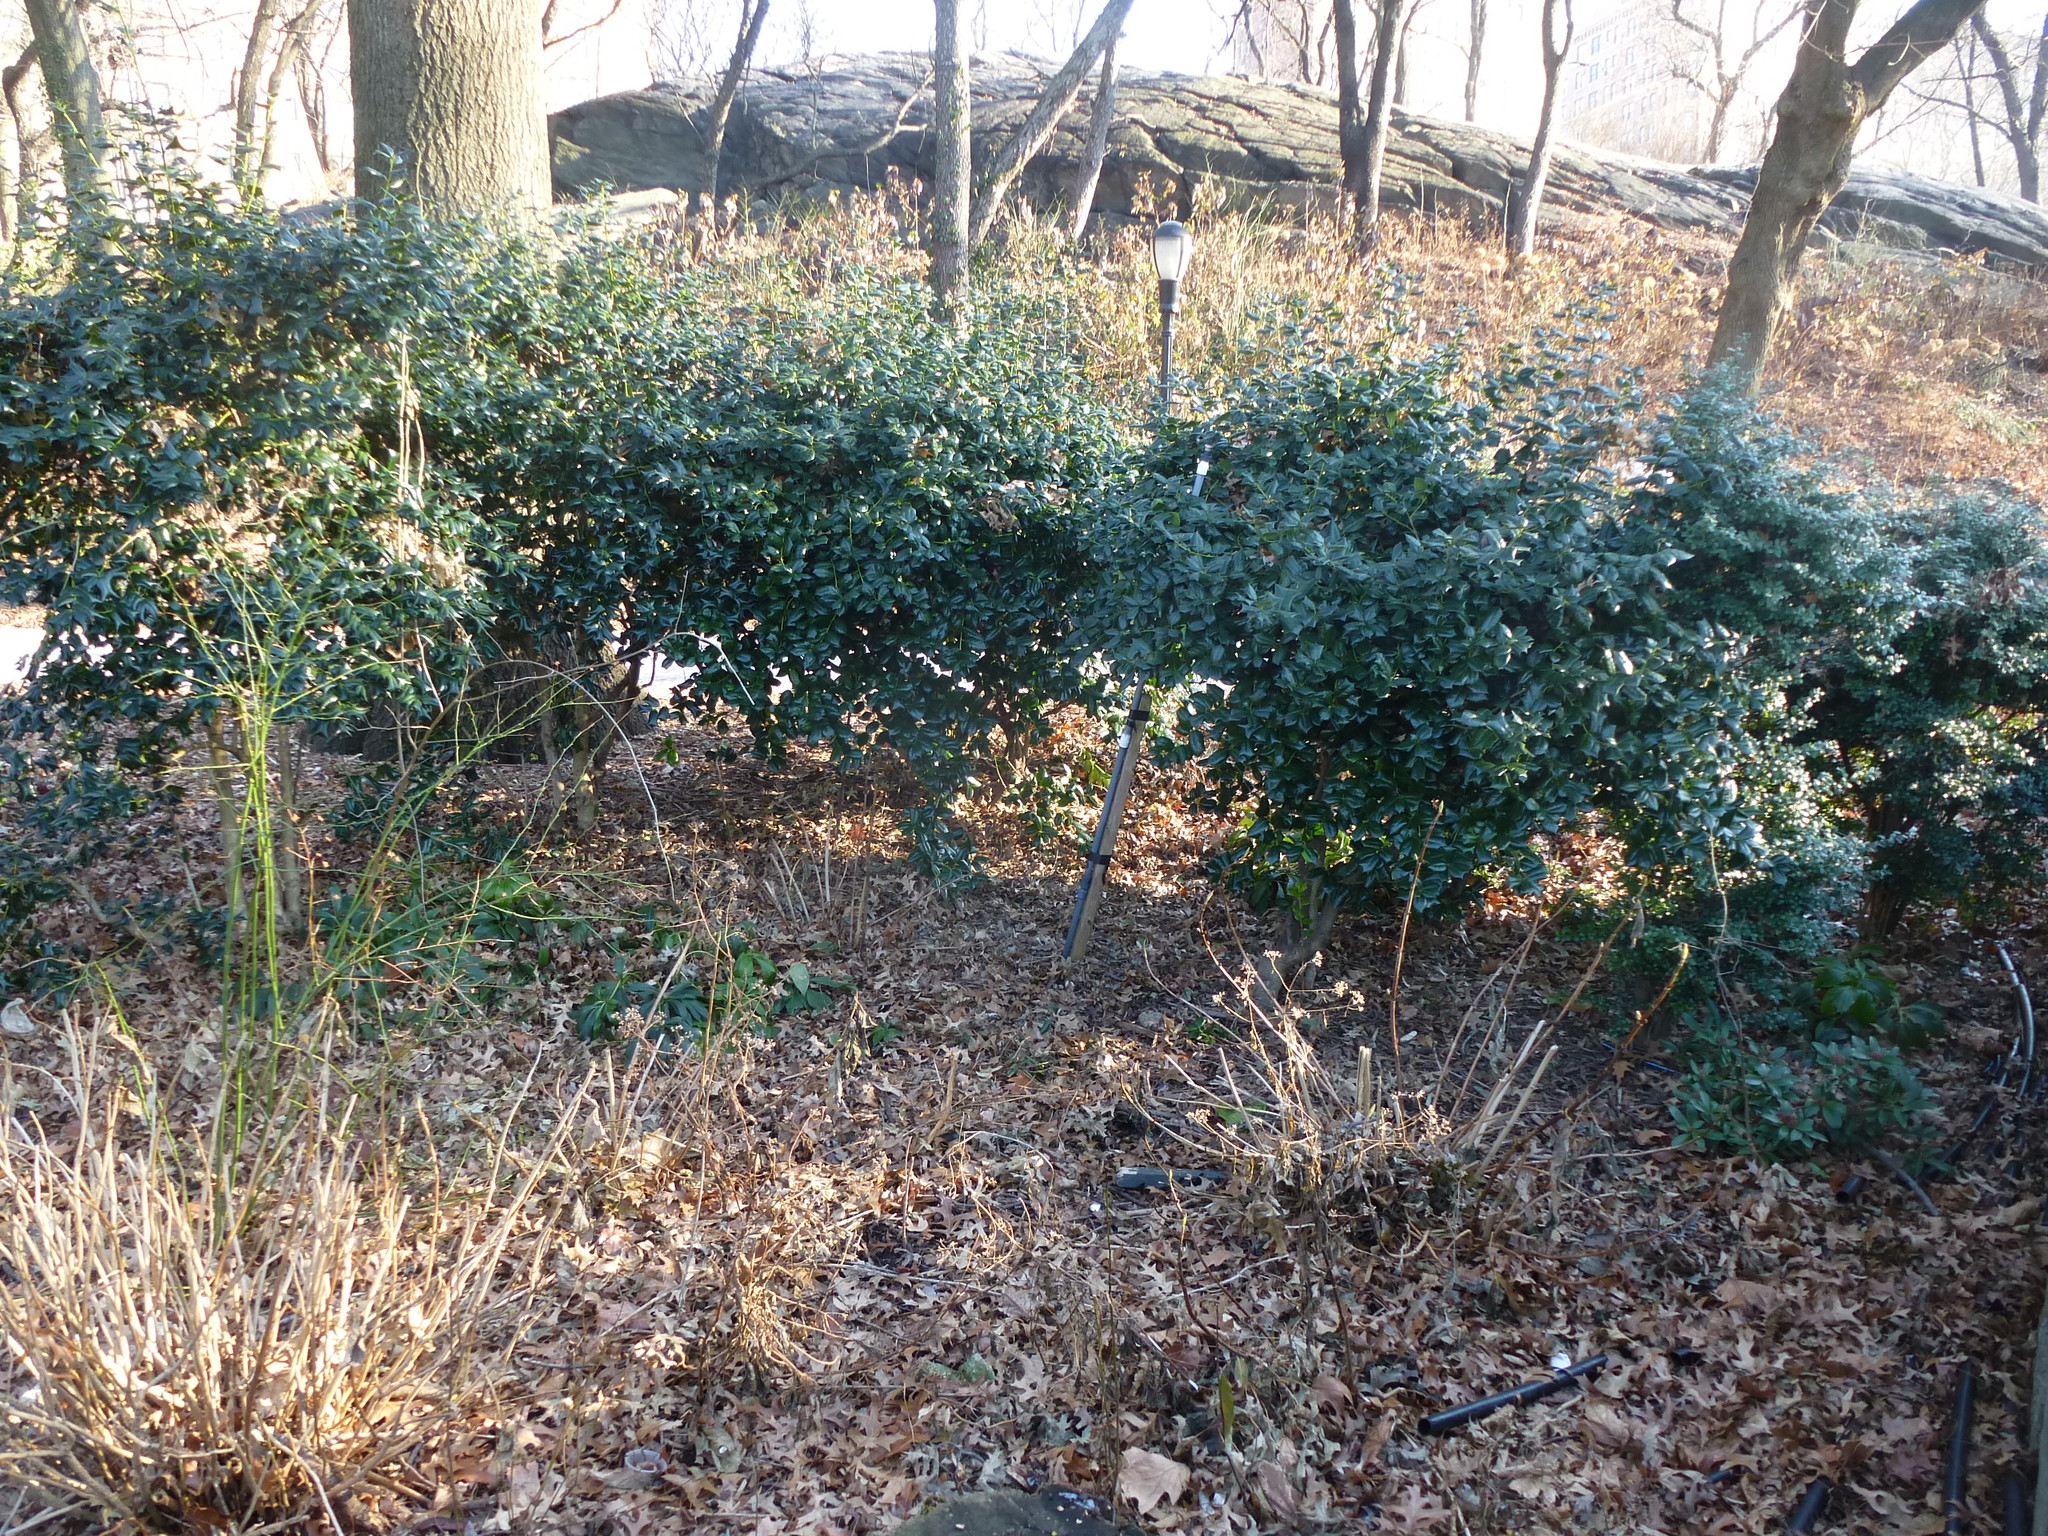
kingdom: Plantae
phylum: Tracheophyta
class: Magnoliopsida
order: Aquifoliales
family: Aquifoliaceae
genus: Ilex
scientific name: Ilex cornuta
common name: Chinese holly
